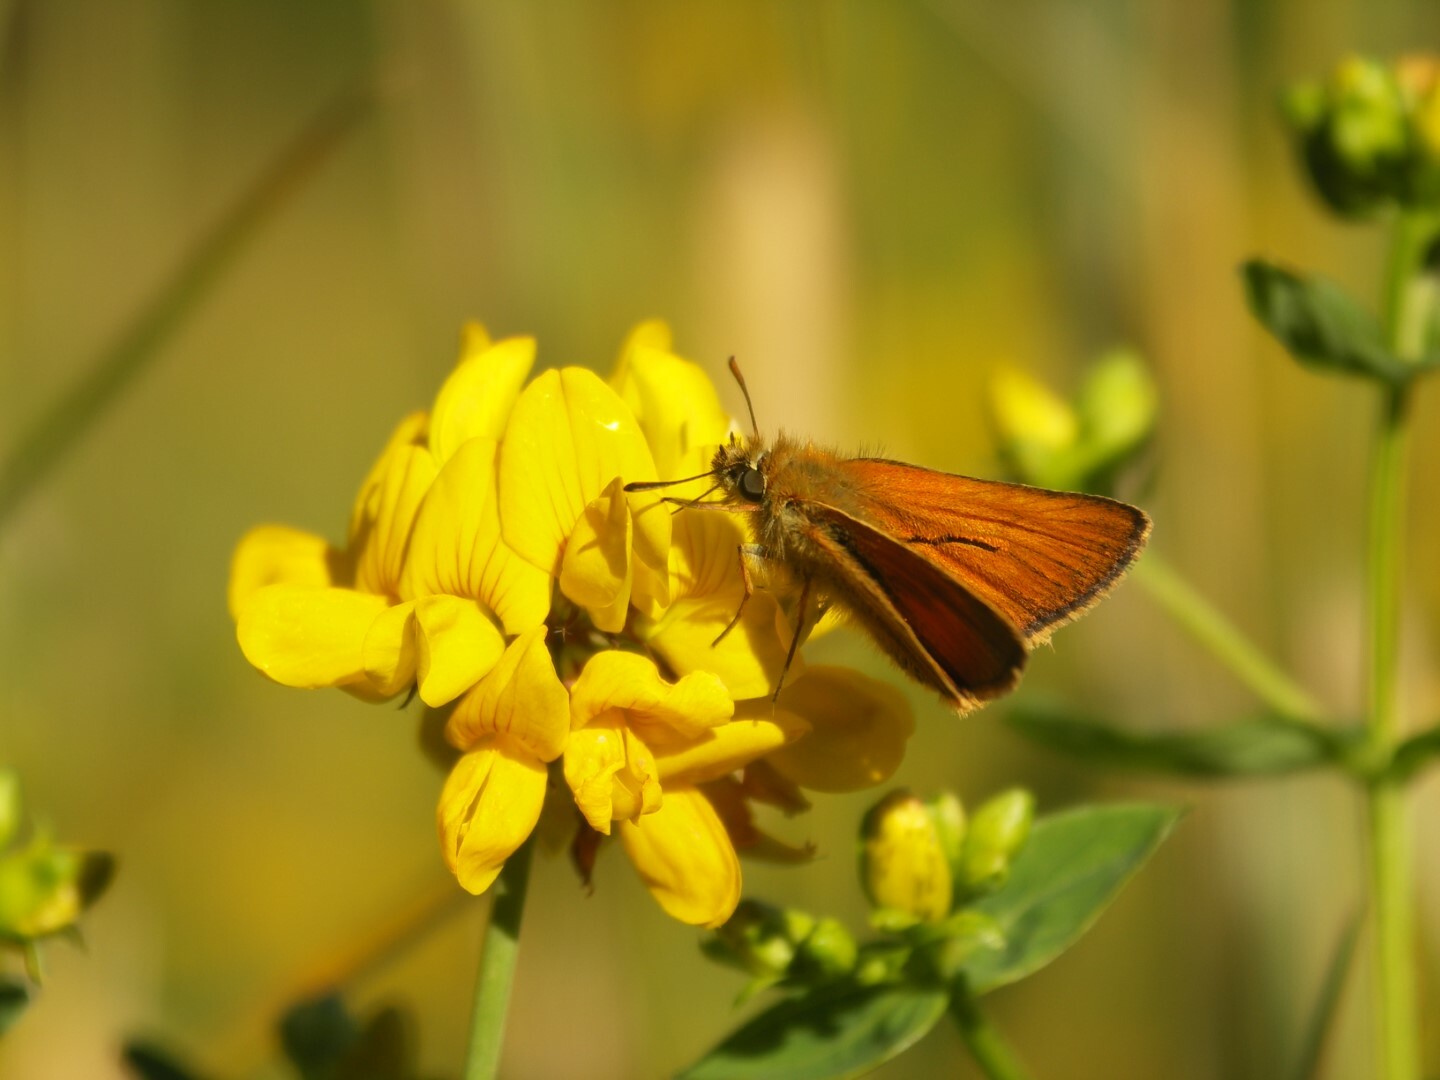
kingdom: Animalia
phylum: Arthropoda
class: Insecta
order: Lepidoptera
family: Hesperiidae
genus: Thymelicus
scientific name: Thymelicus sylvestris
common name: Small skipper
